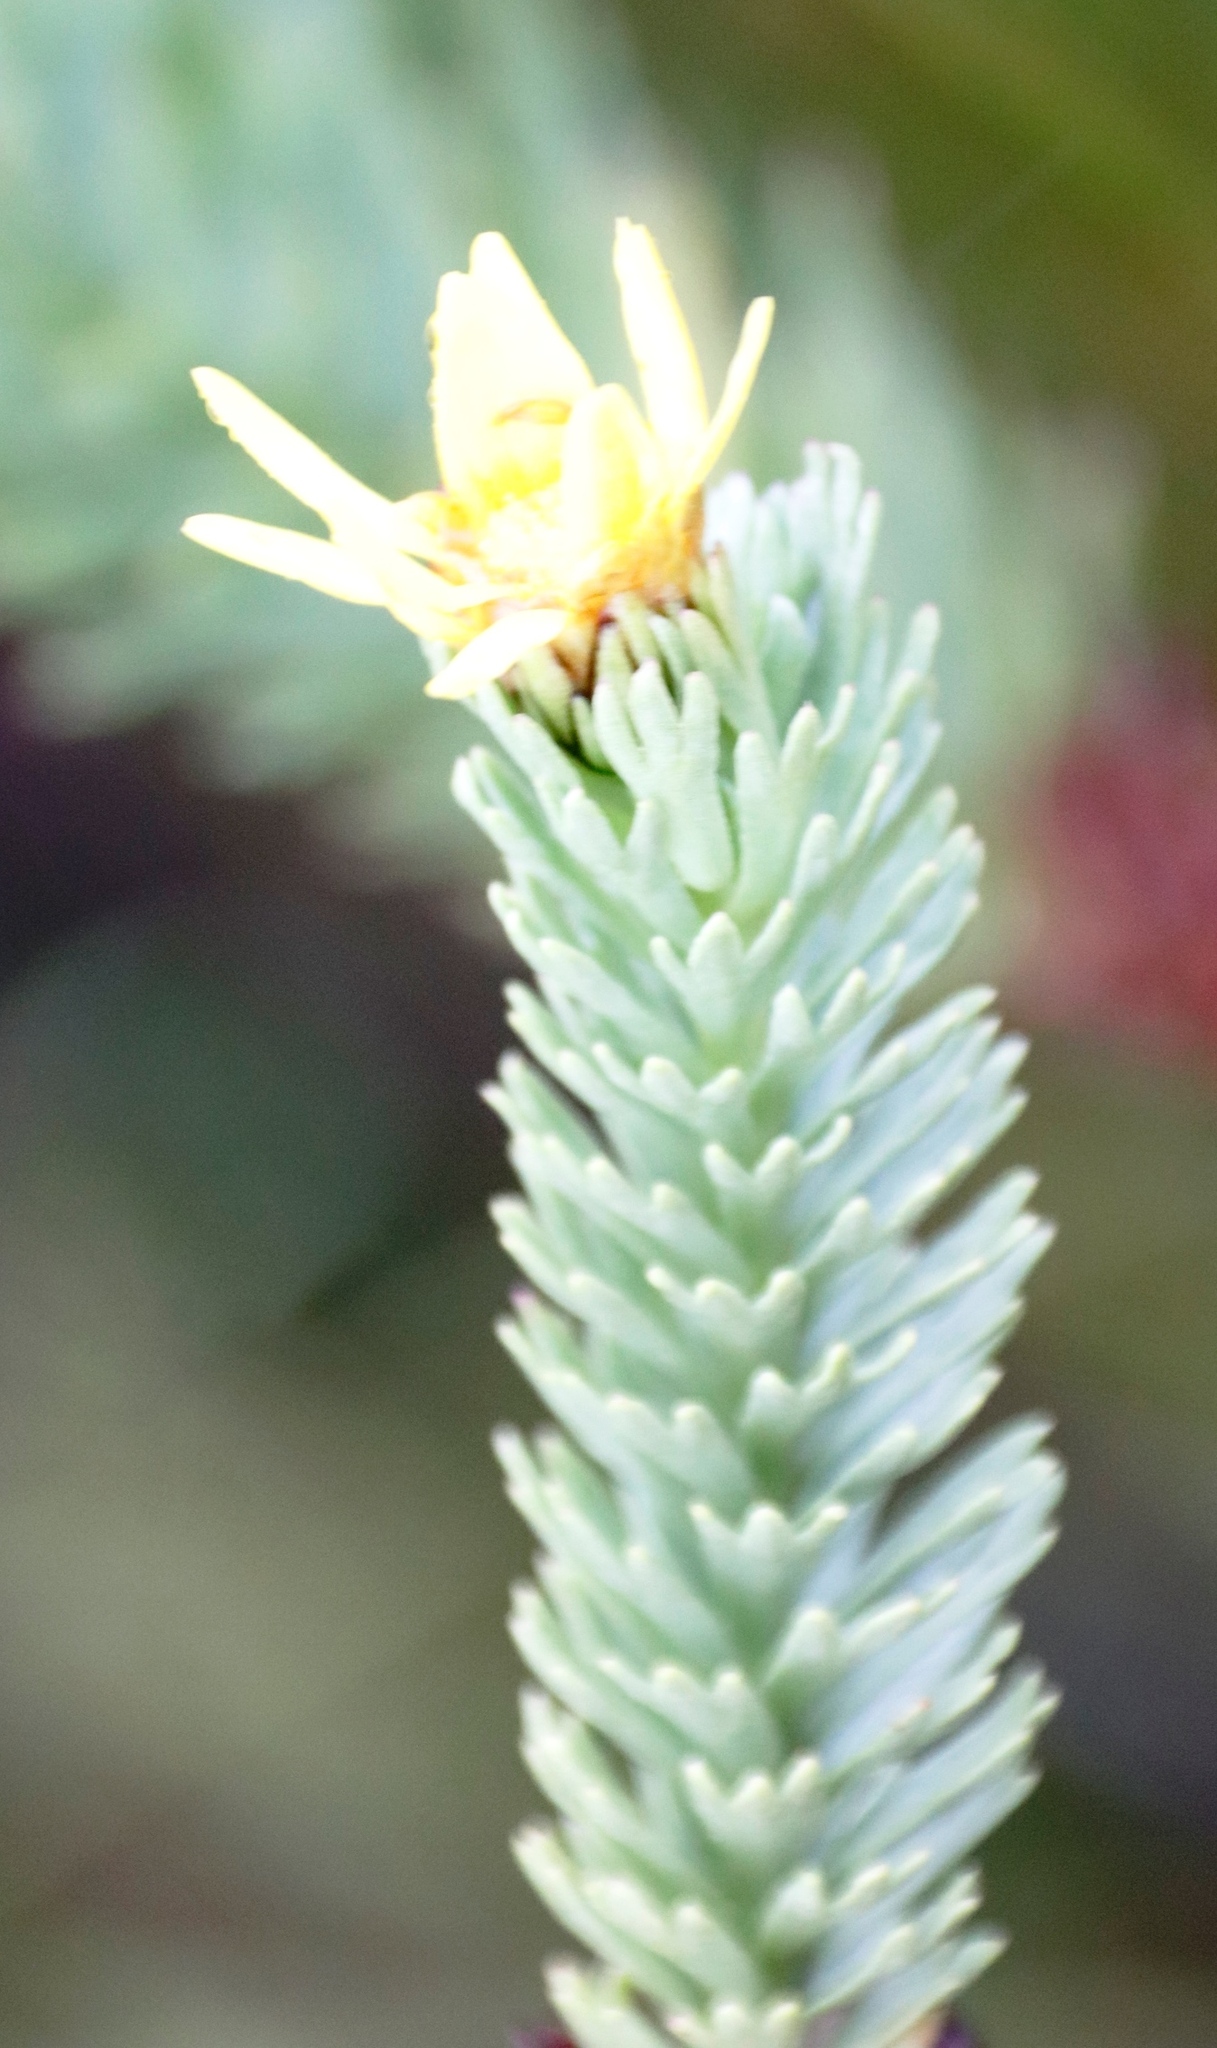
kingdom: Plantae
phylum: Tracheophyta
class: Magnoliopsida
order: Asterales
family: Asteraceae
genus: Ursinia
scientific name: Ursinia quinquepartita
